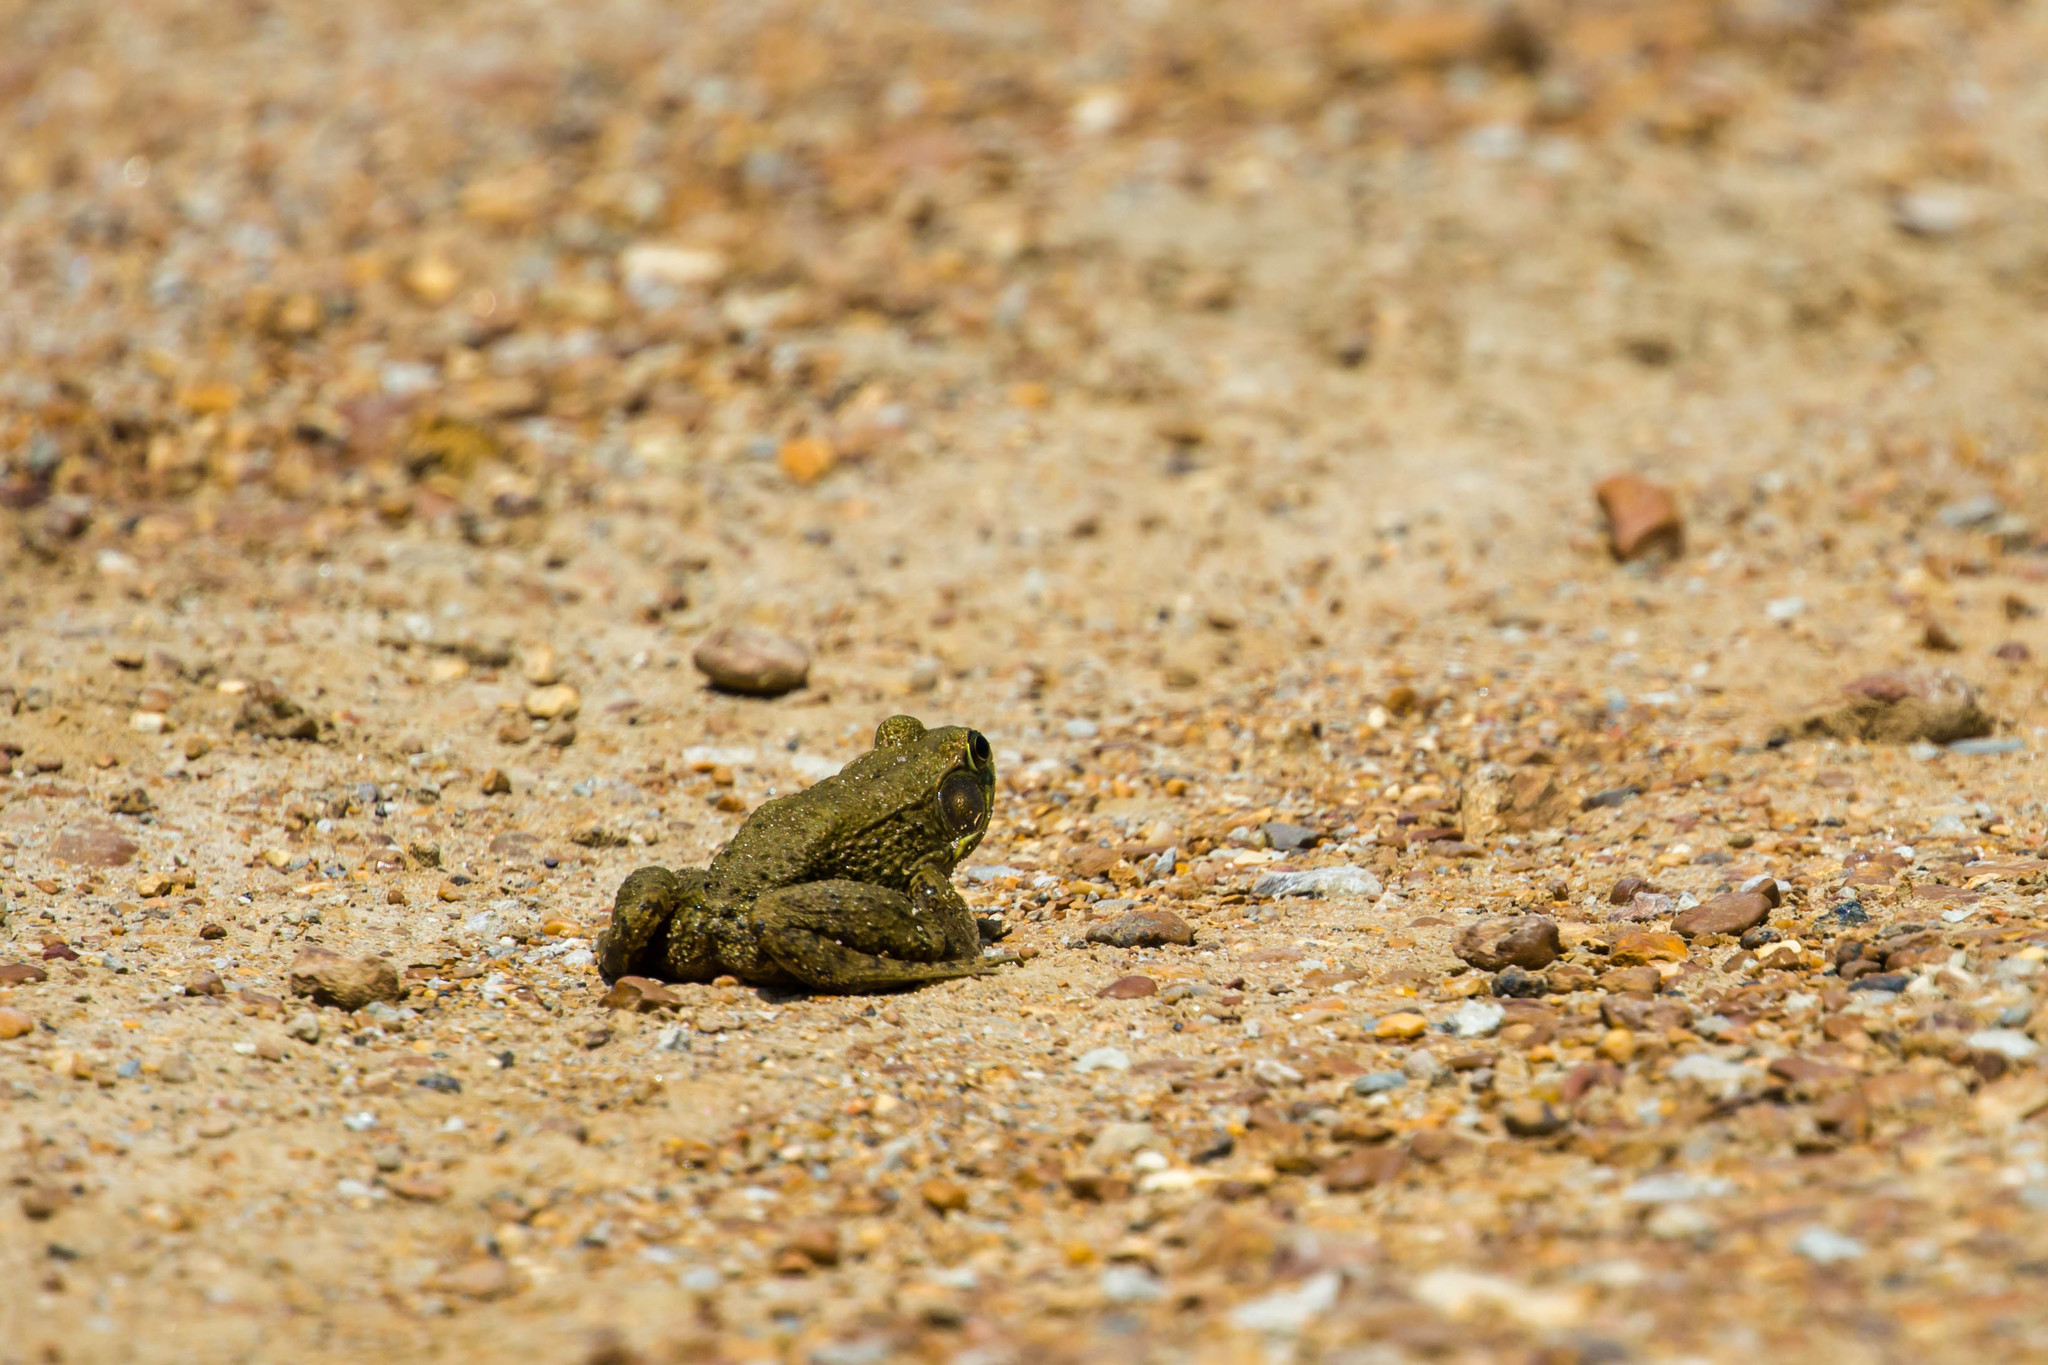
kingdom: Animalia
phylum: Chordata
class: Amphibia
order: Anura
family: Ranidae
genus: Lithobates
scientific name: Lithobates clamitans
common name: Green frog
